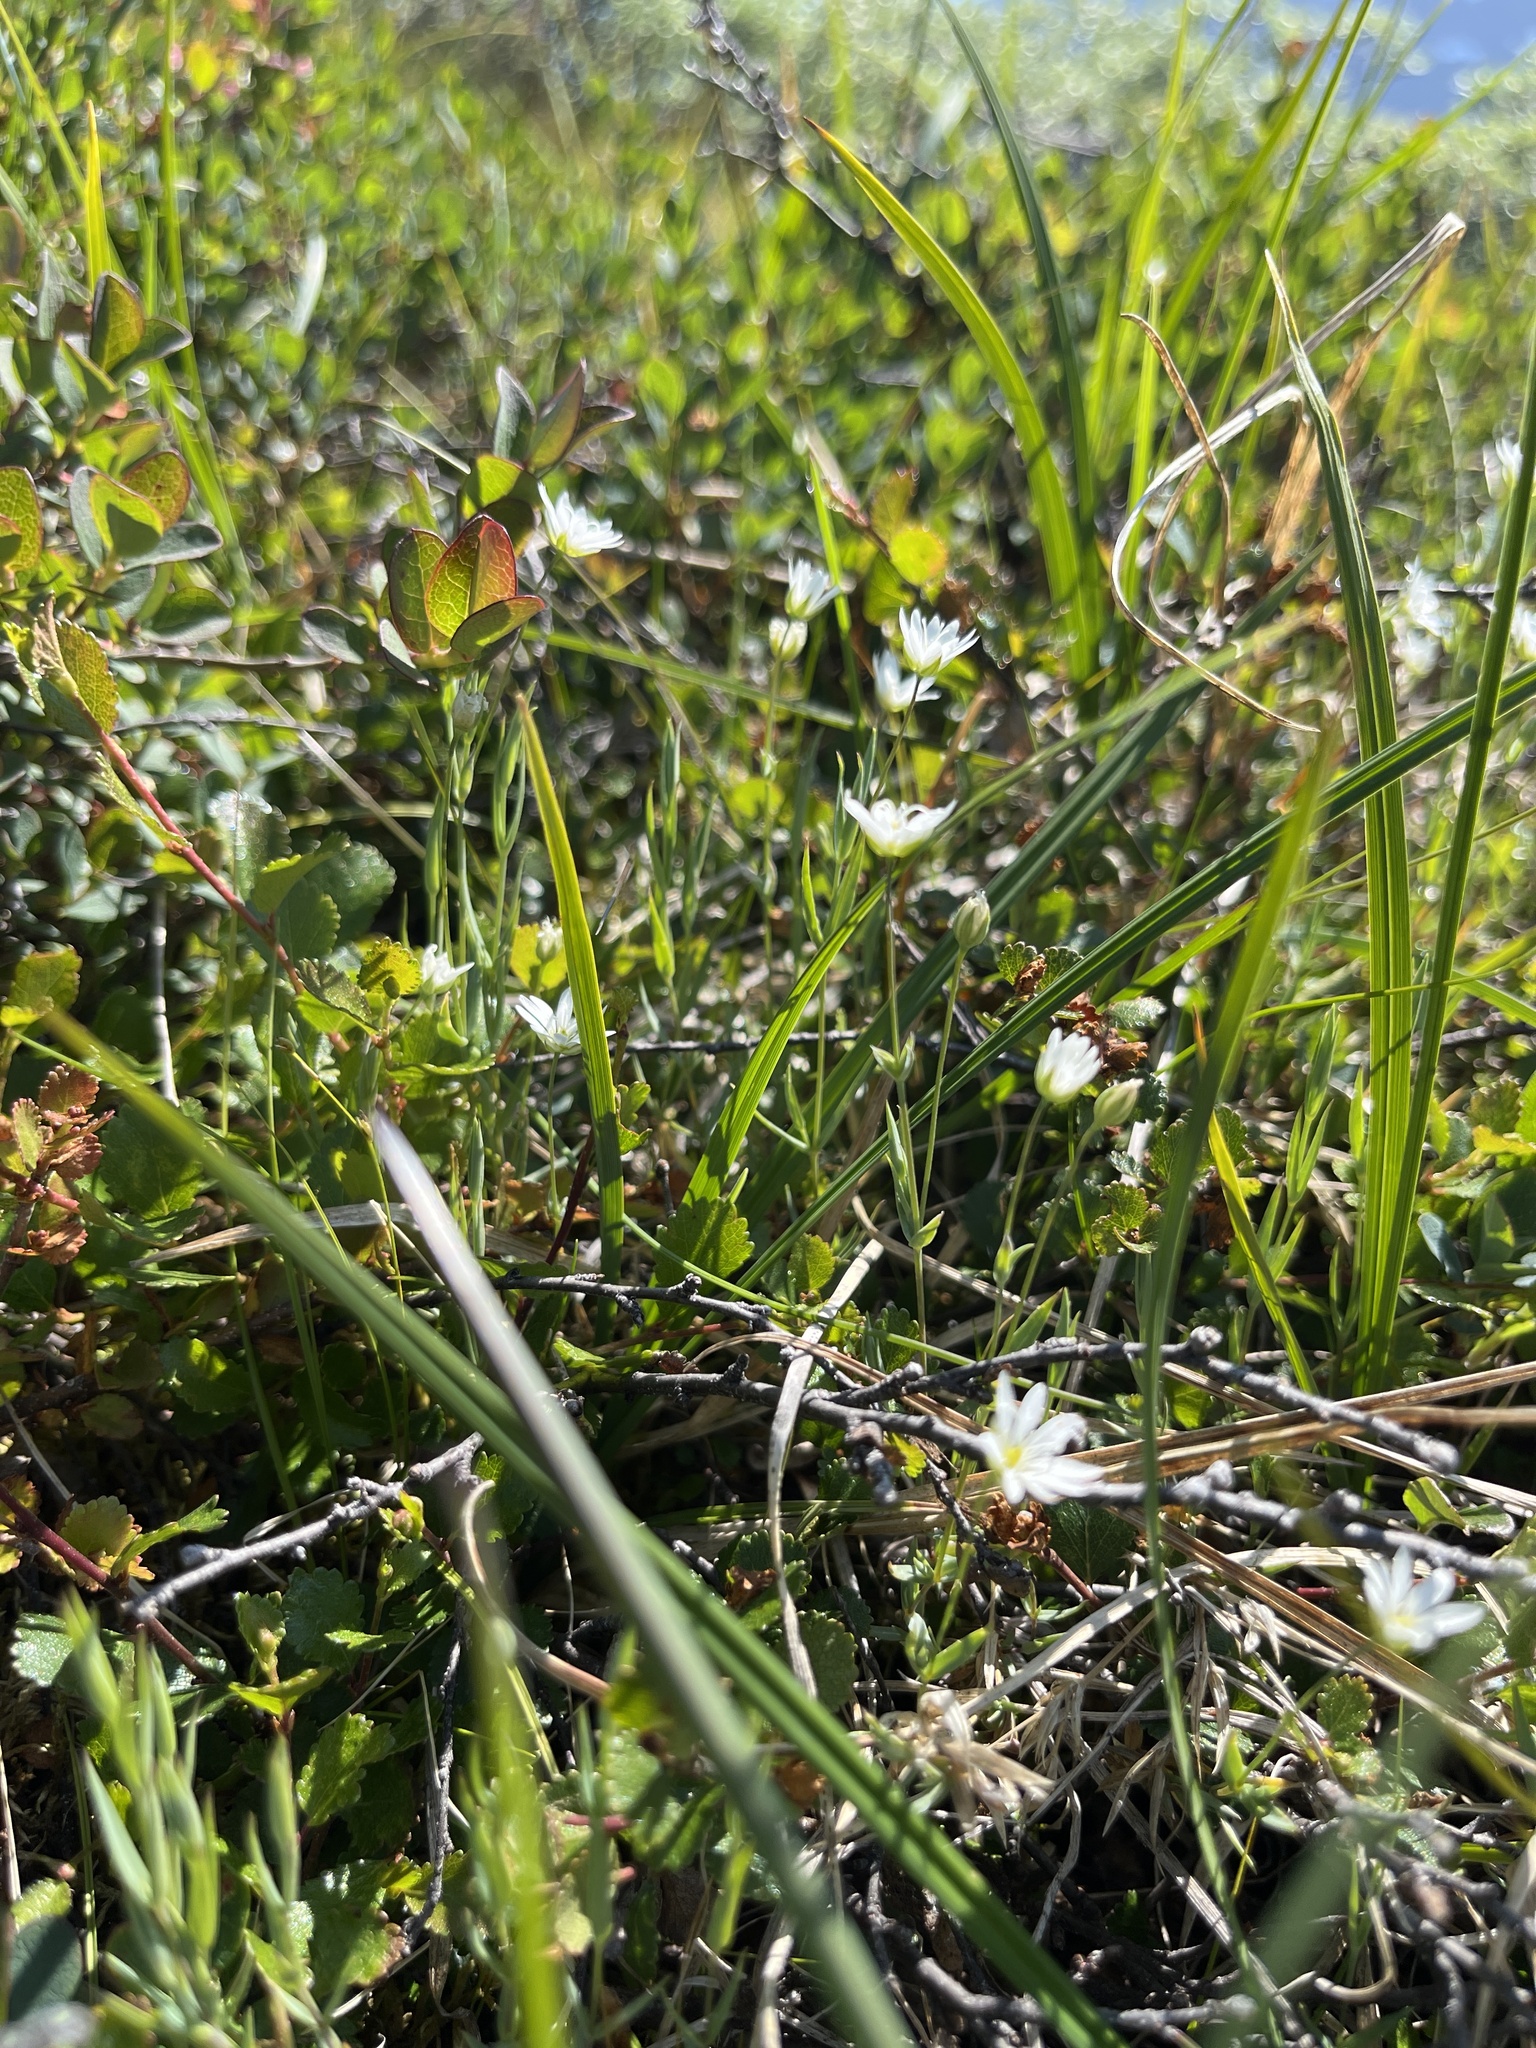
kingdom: Plantae
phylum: Tracheophyta
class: Magnoliopsida
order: Caryophyllales
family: Caryophyllaceae
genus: Stellaria
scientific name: Stellaria longipes
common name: Goldie's starwort
